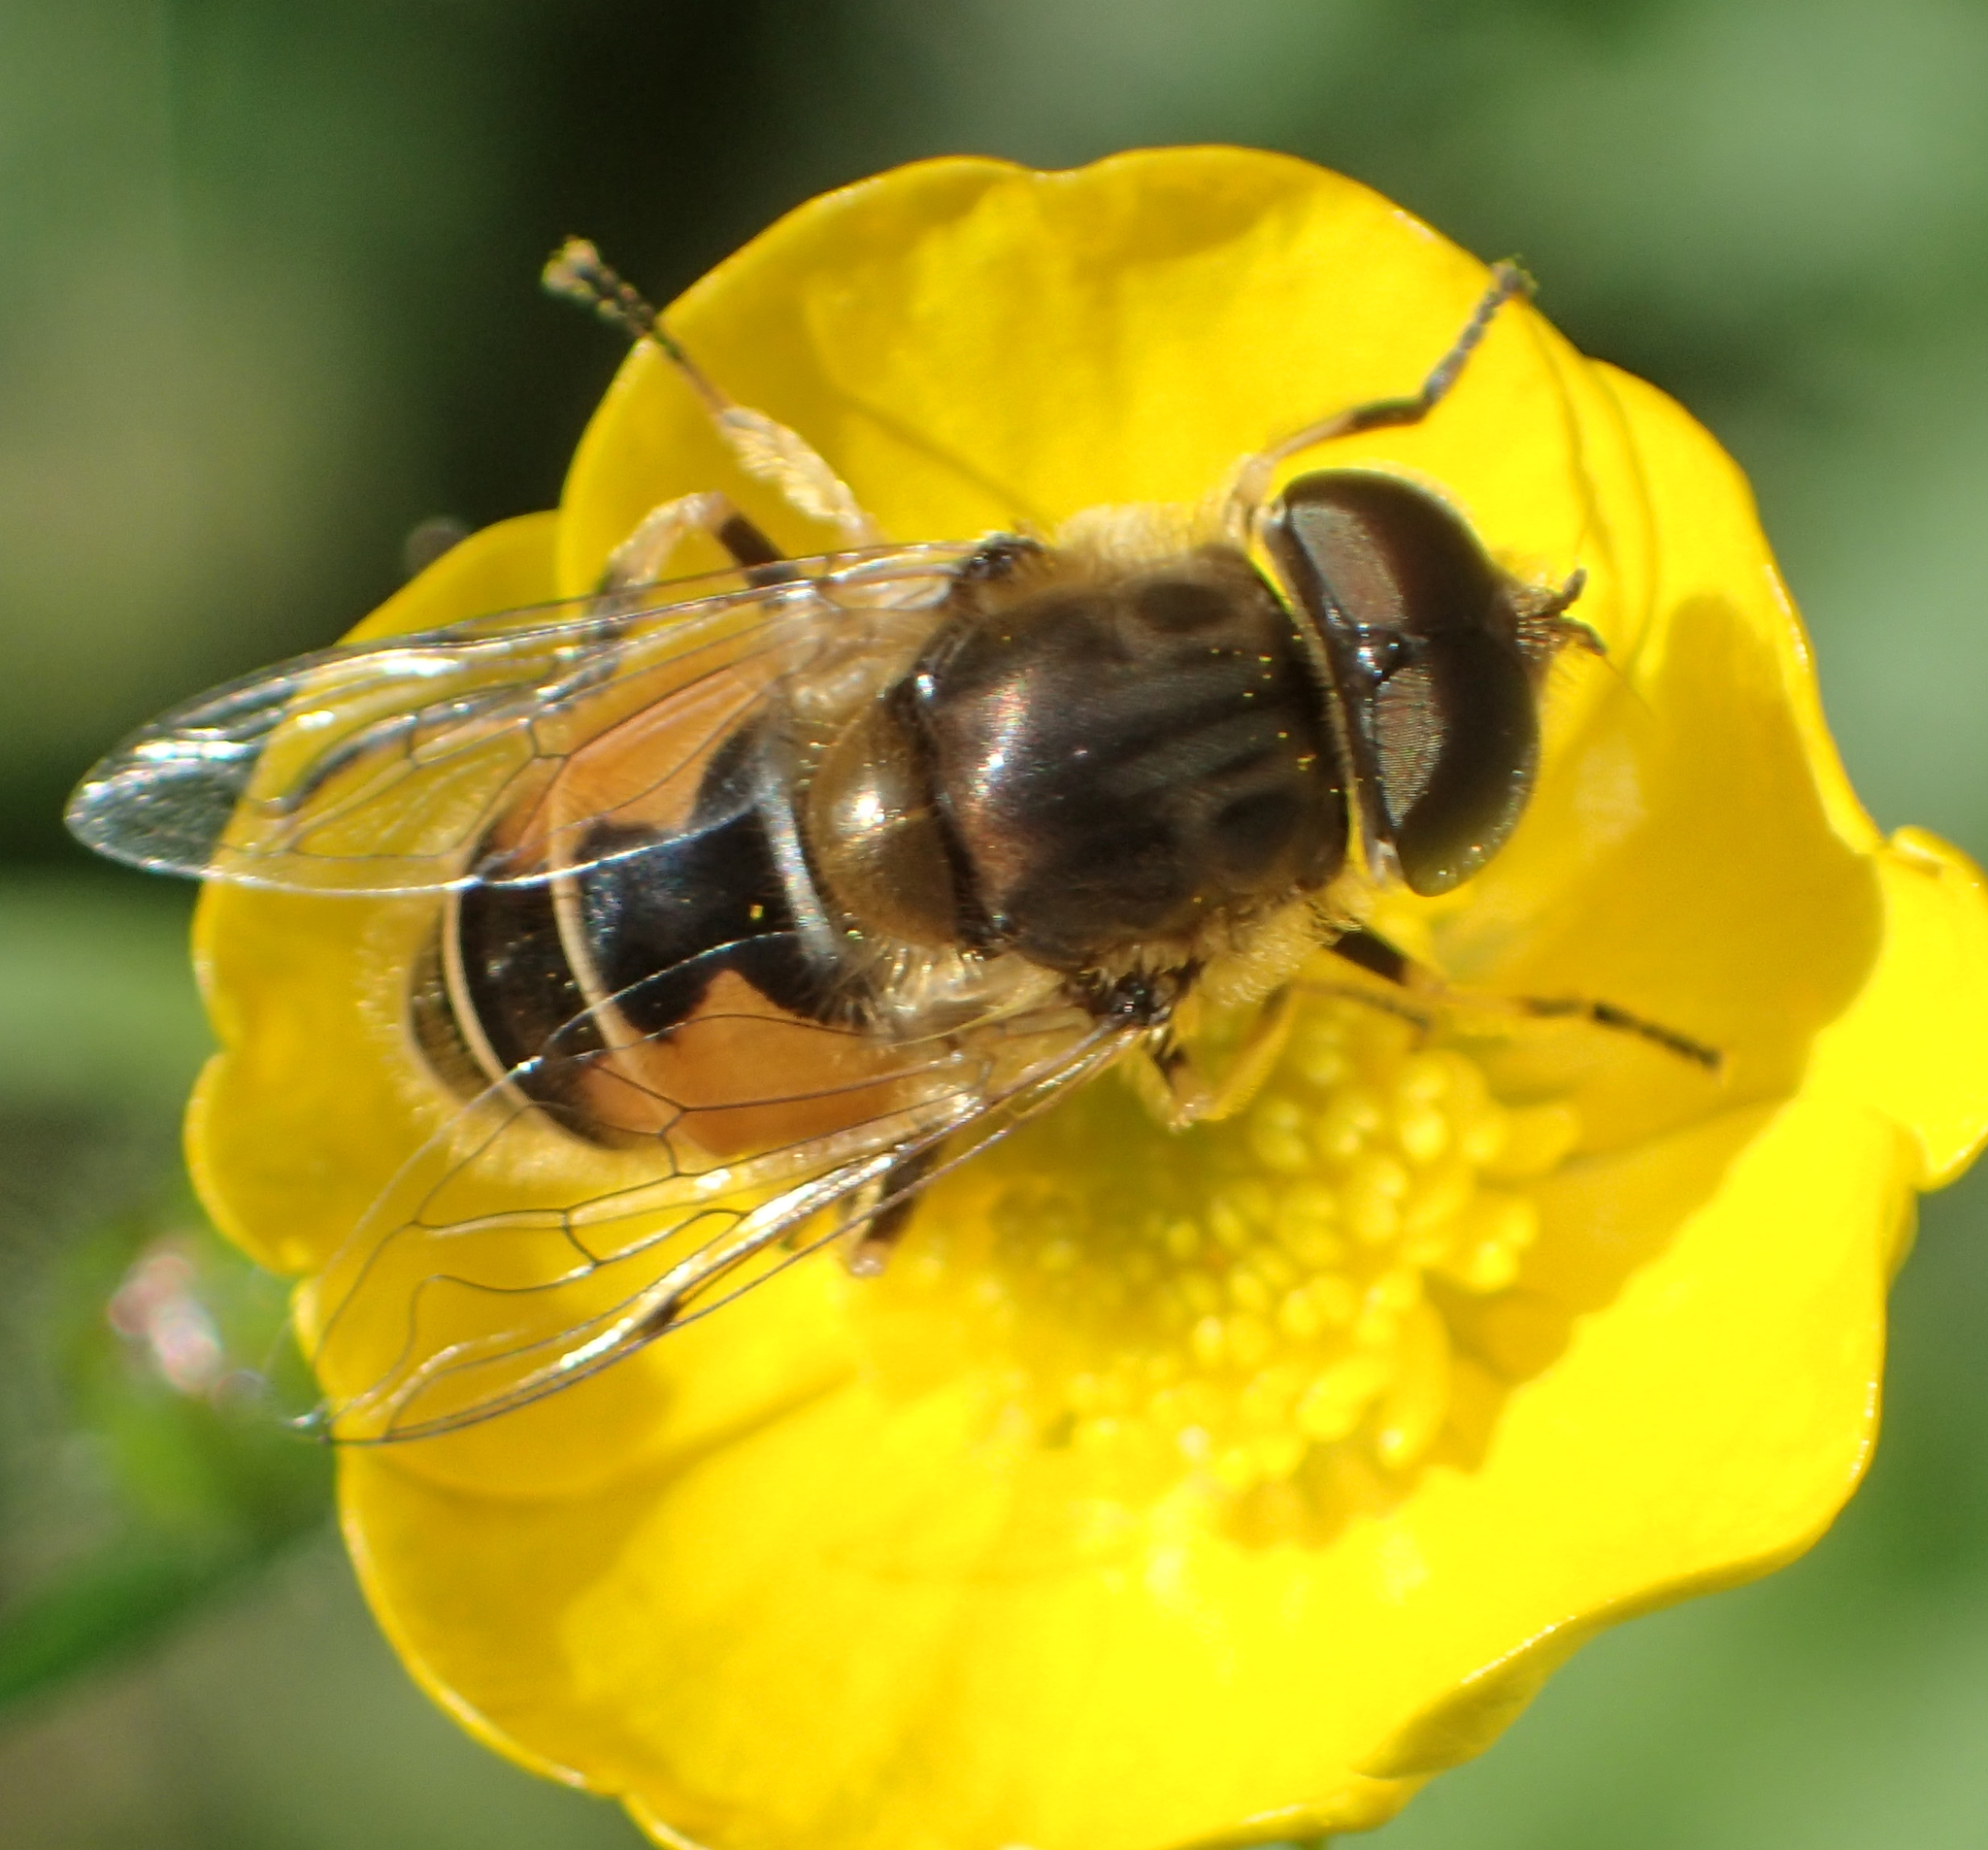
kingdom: Animalia
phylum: Arthropoda
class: Insecta
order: Diptera
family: Syrphidae
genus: Eristalis
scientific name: Eristalis arbustorum
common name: Hover fly
